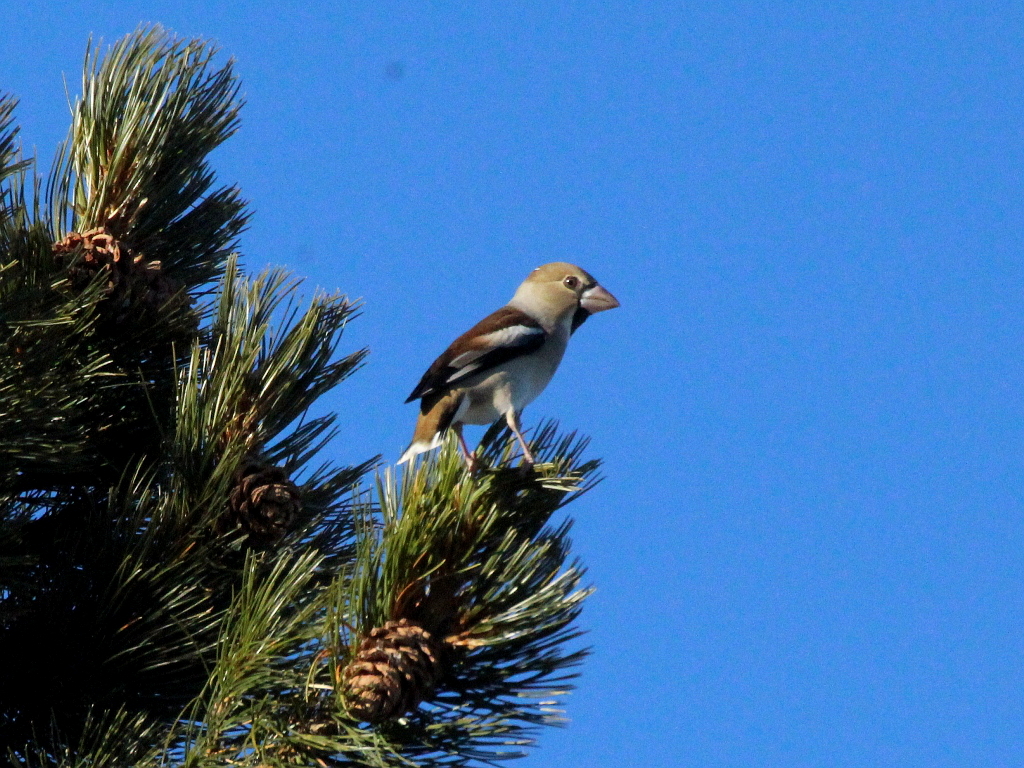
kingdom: Animalia
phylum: Chordata
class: Aves
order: Passeriformes
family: Fringillidae
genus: Coccothraustes
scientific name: Coccothraustes coccothraustes
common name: Hawfinch
